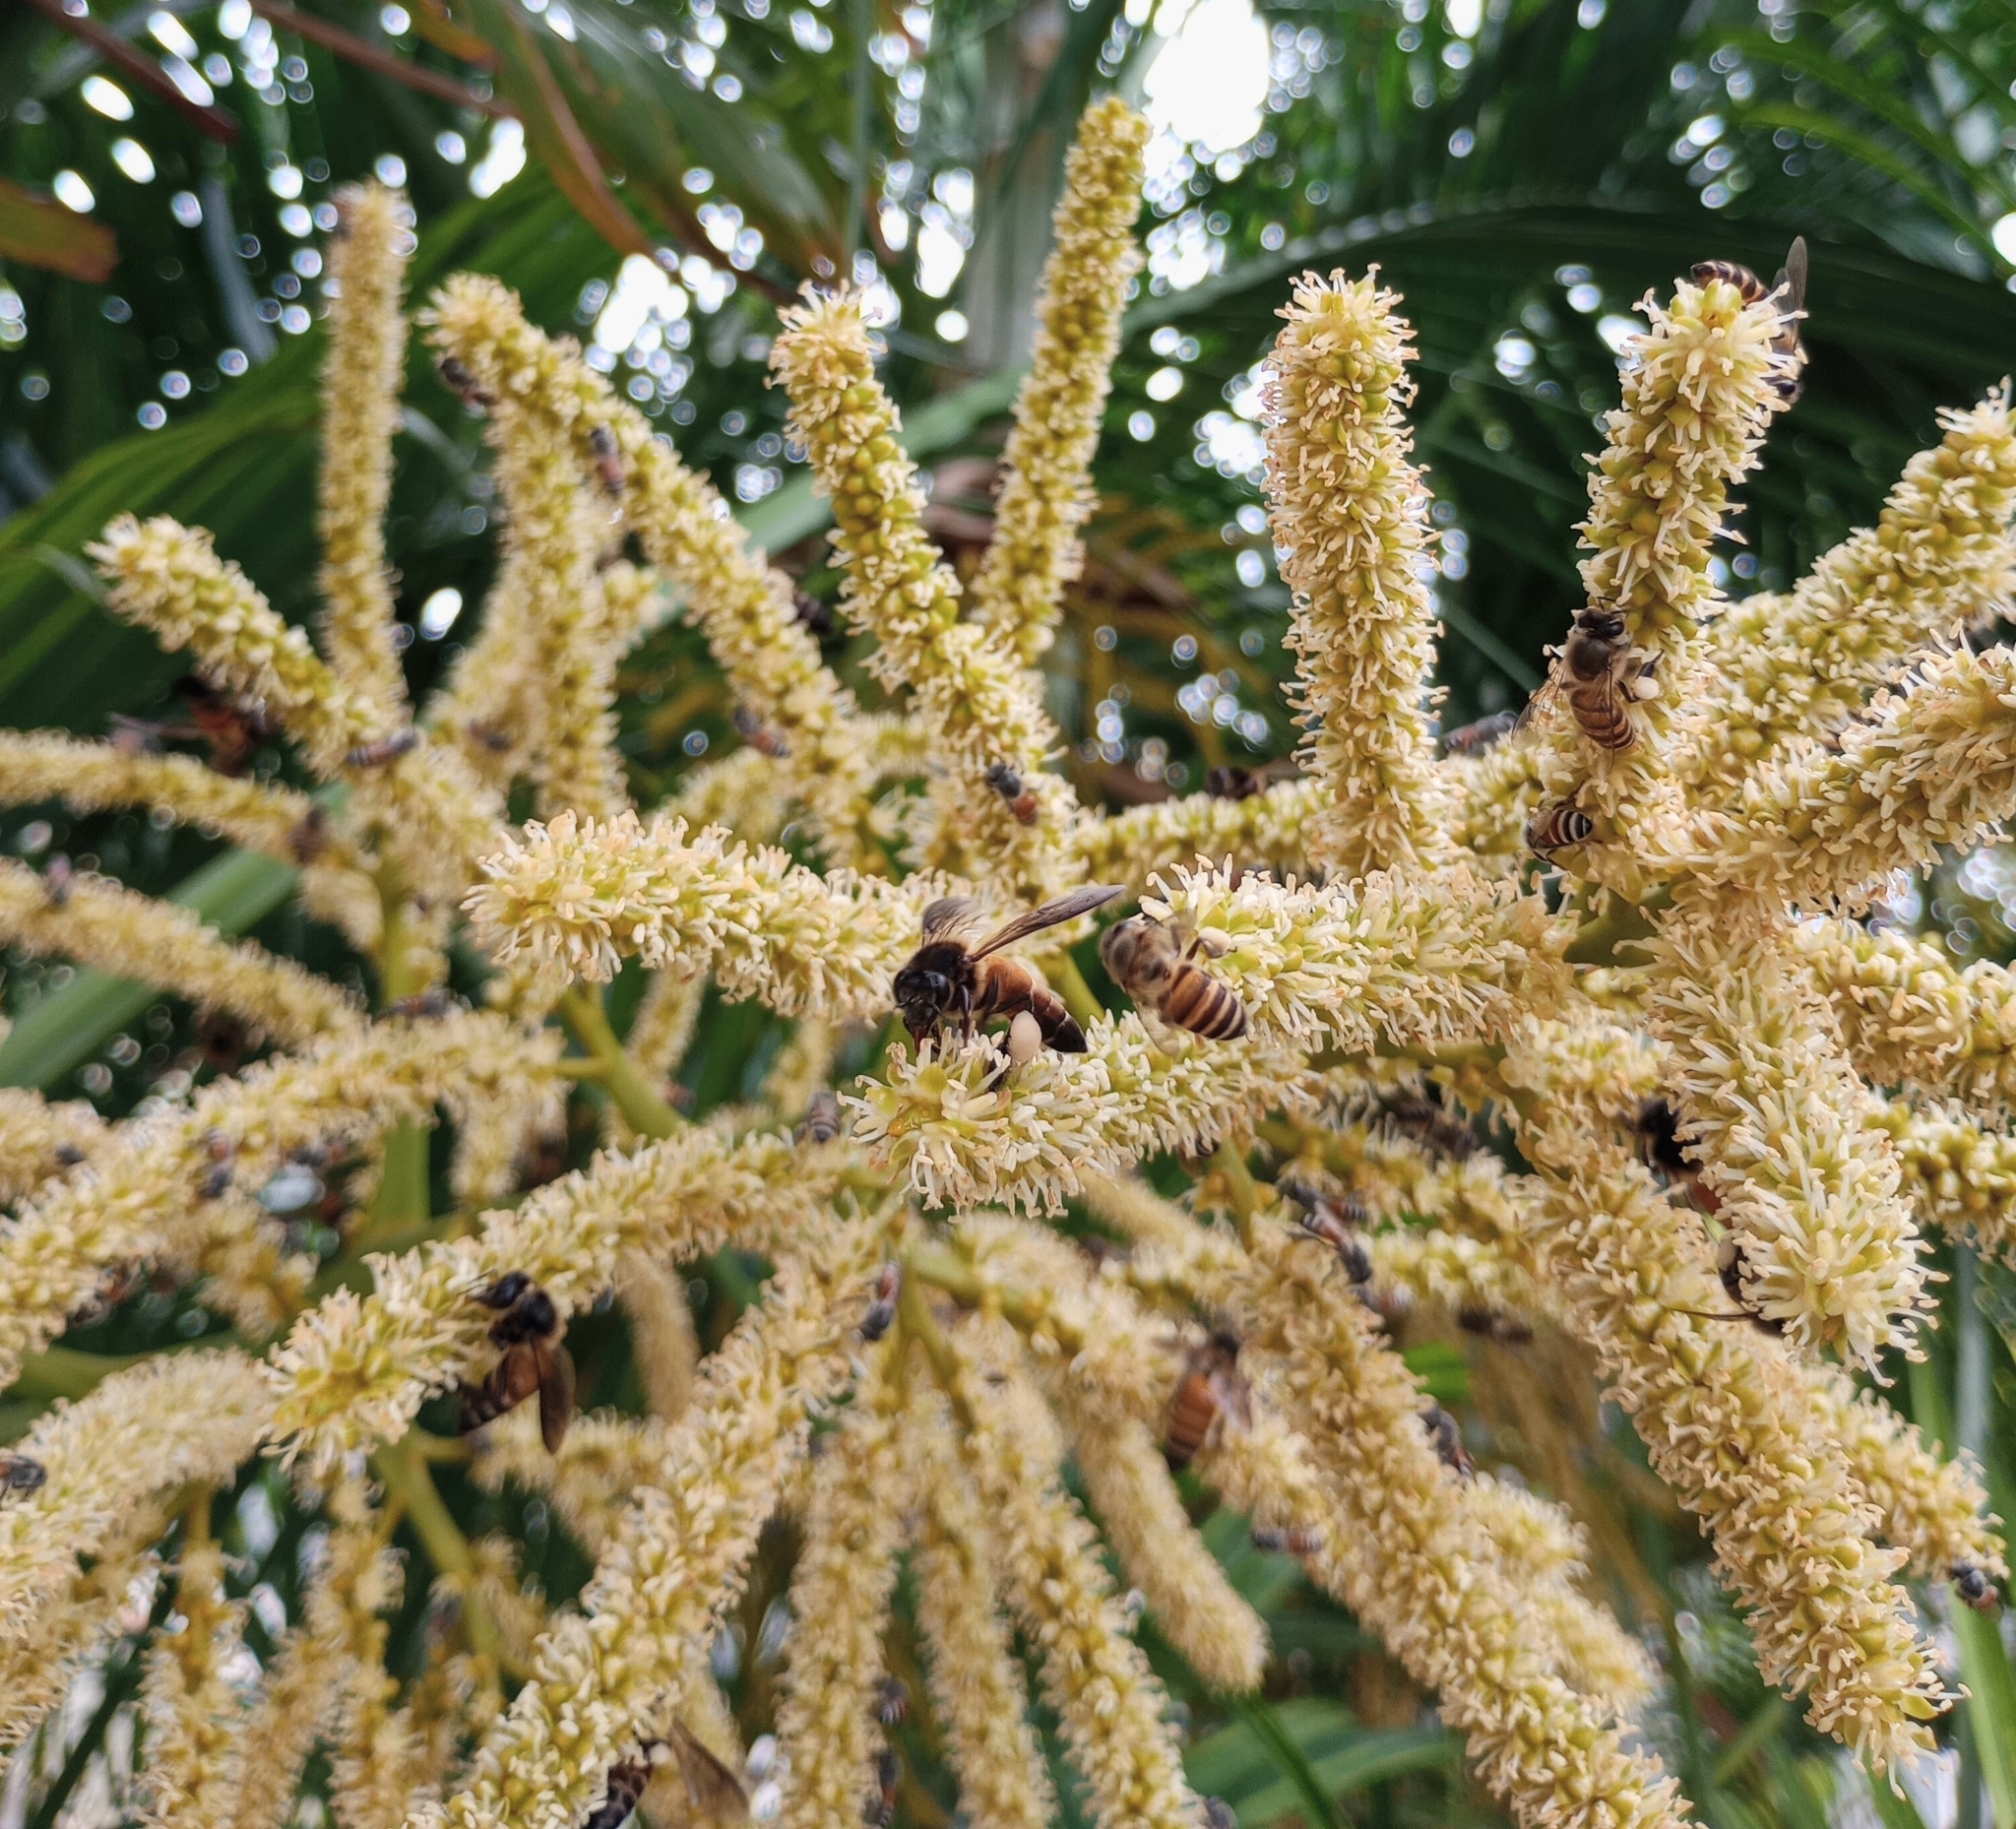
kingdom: Animalia
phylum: Arthropoda
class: Insecta
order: Hymenoptera
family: Apidae
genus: Apis
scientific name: Apis dorsata
